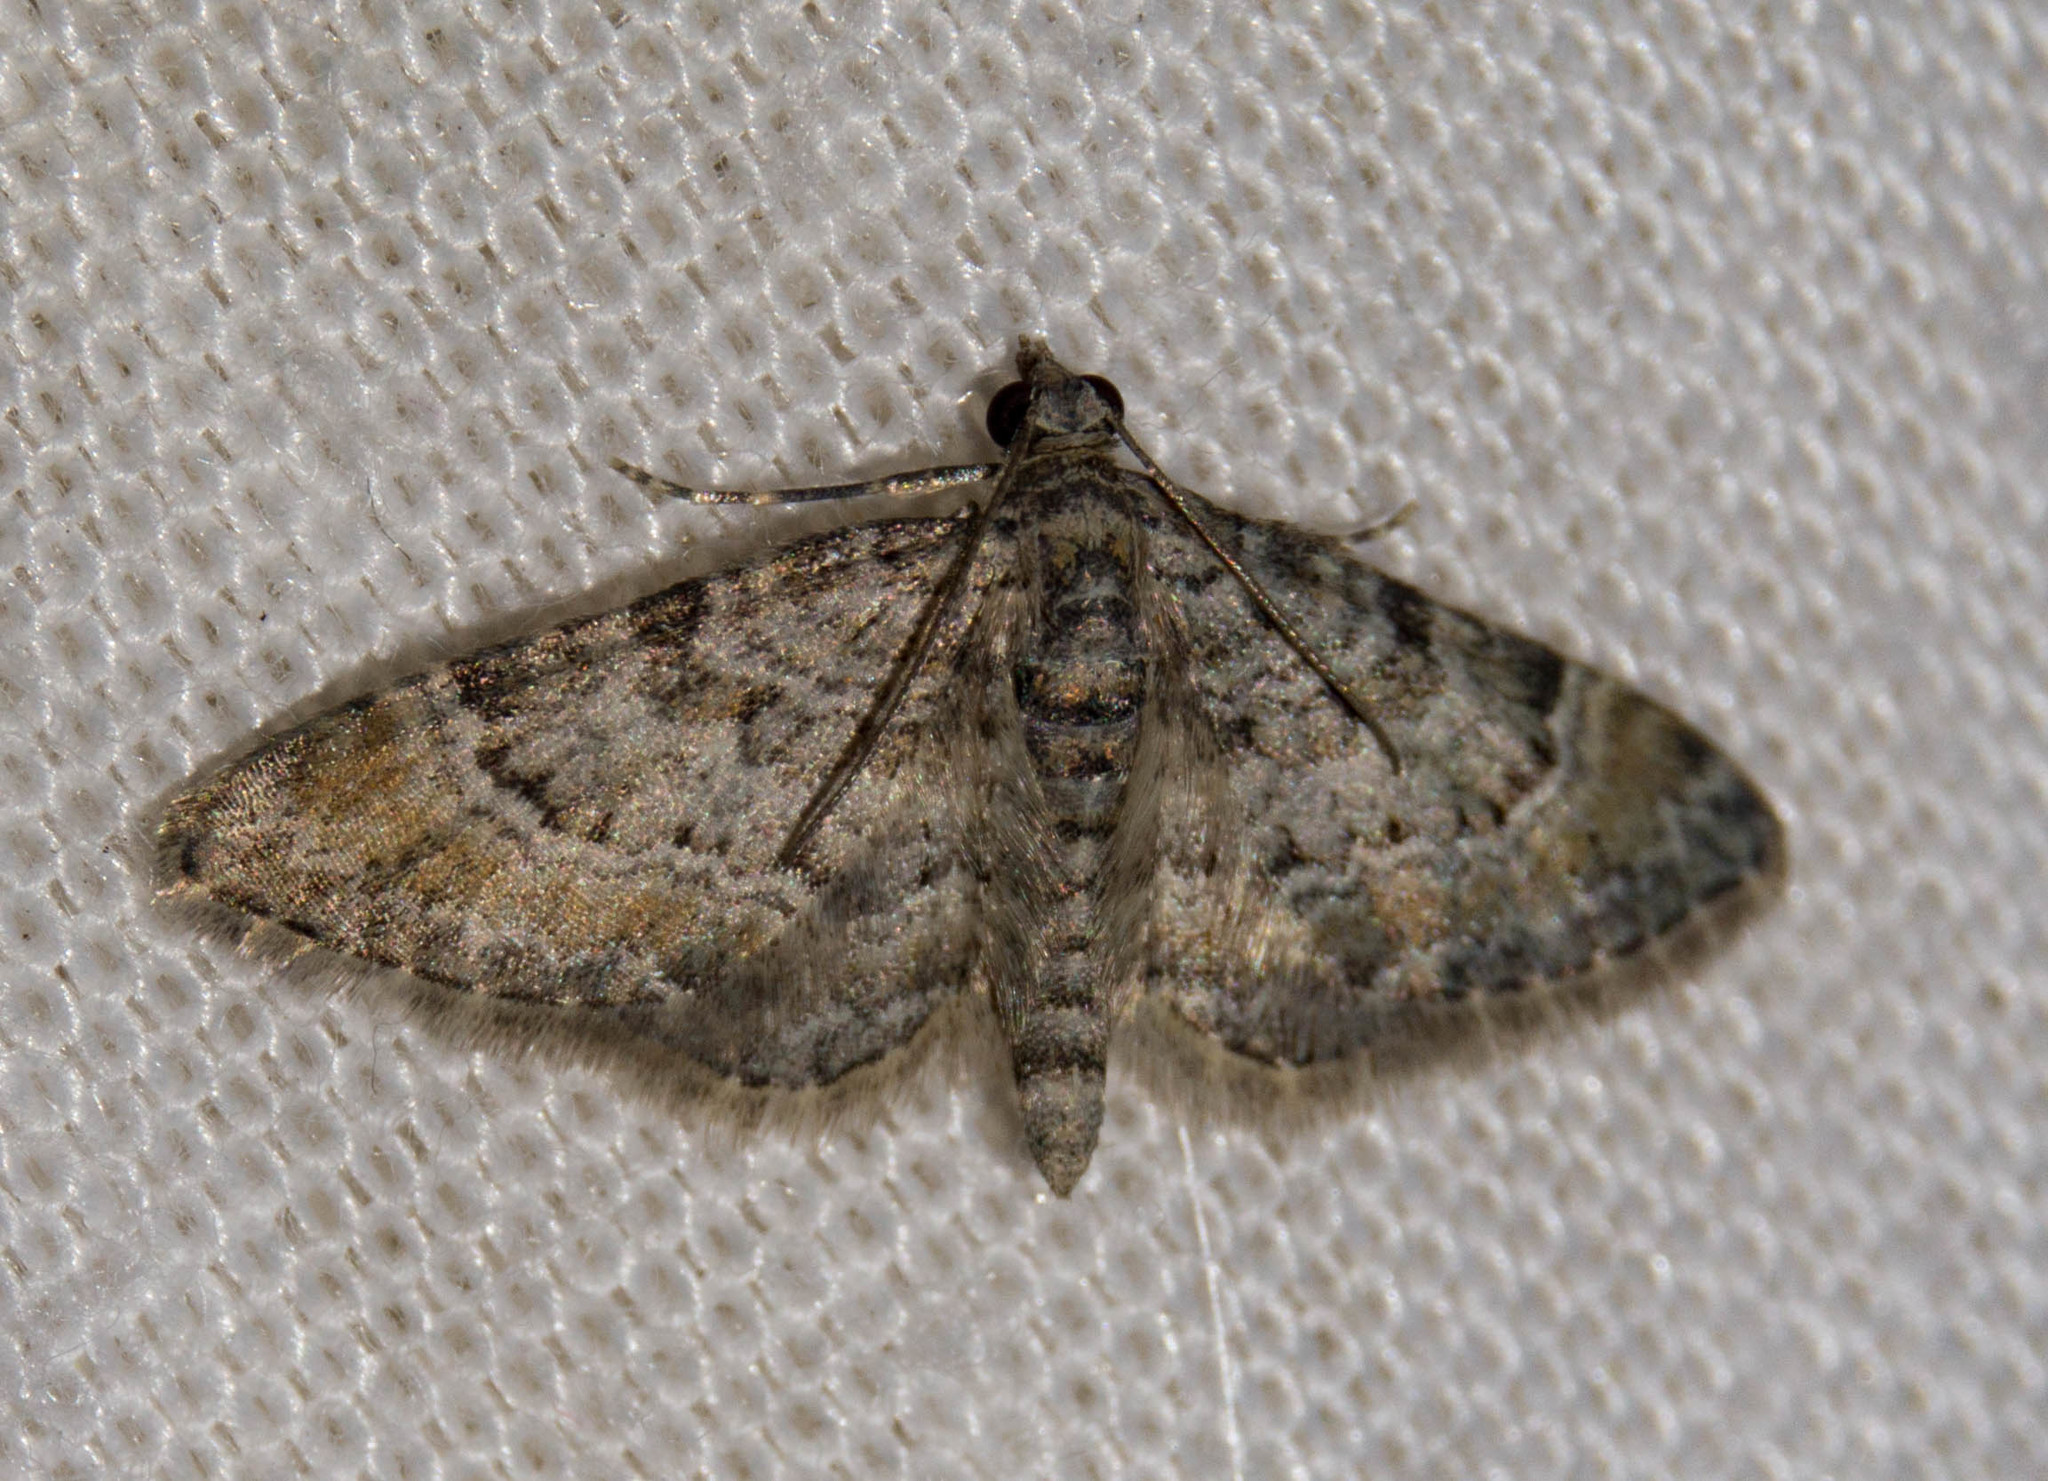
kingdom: Animalia
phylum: Arthropoda
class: Insecta
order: Lepidoptera
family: Geometridae
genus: Gymnoscelis
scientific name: Gymnoscelis rufifasciata
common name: Double-striped pug
